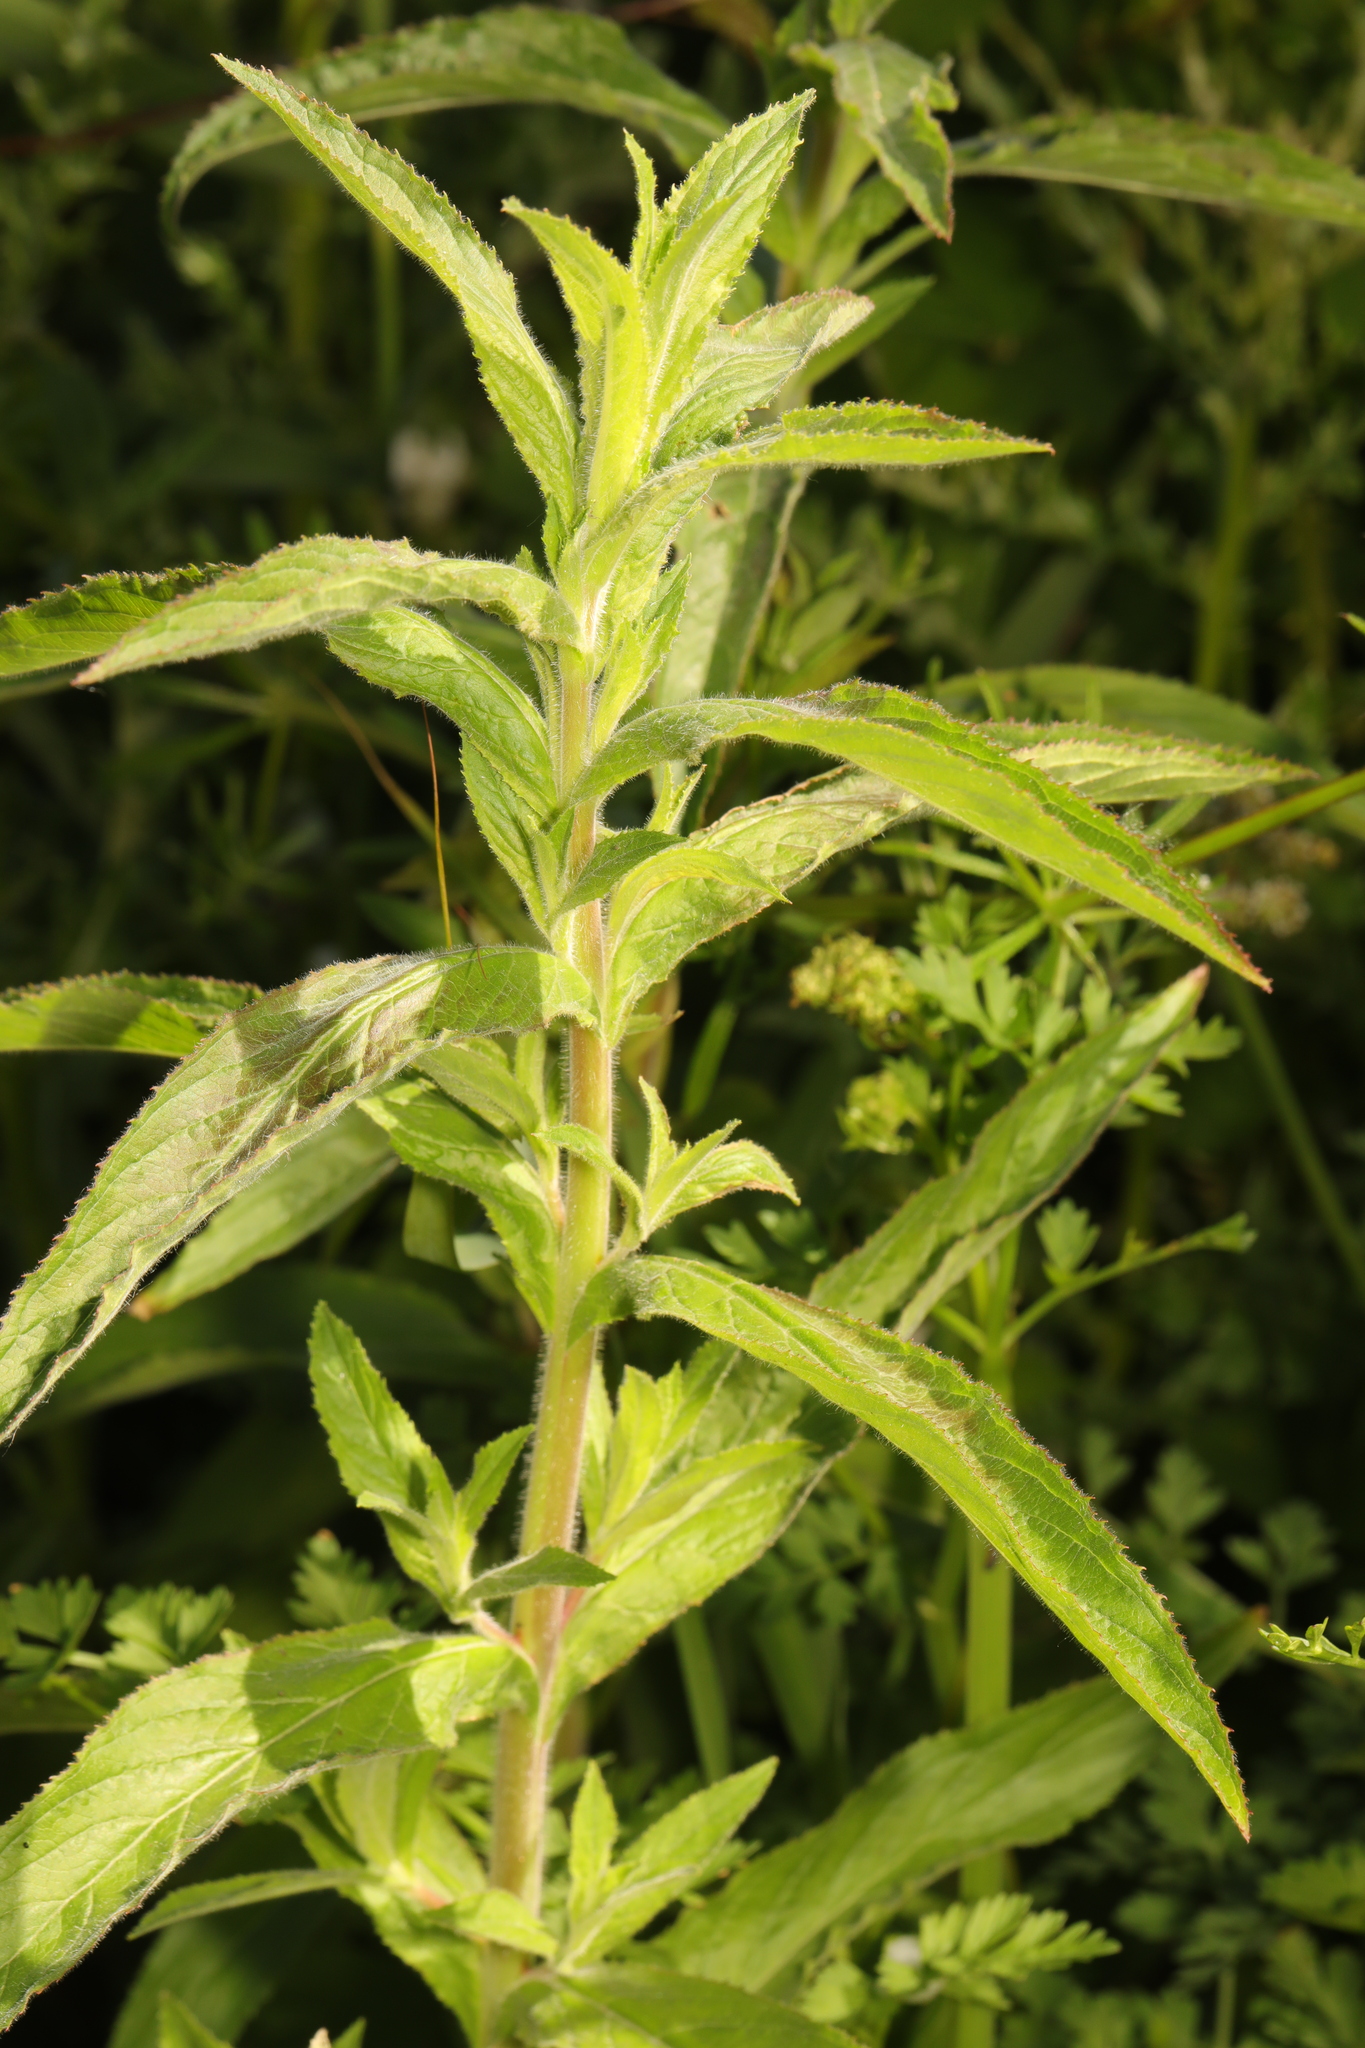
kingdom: Plantae
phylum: Tracheophyta
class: Magnoliopsida
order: Myrtales
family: Onagraceae
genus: Epilobium
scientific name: Epilobium hirsutum
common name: Great willowherb
